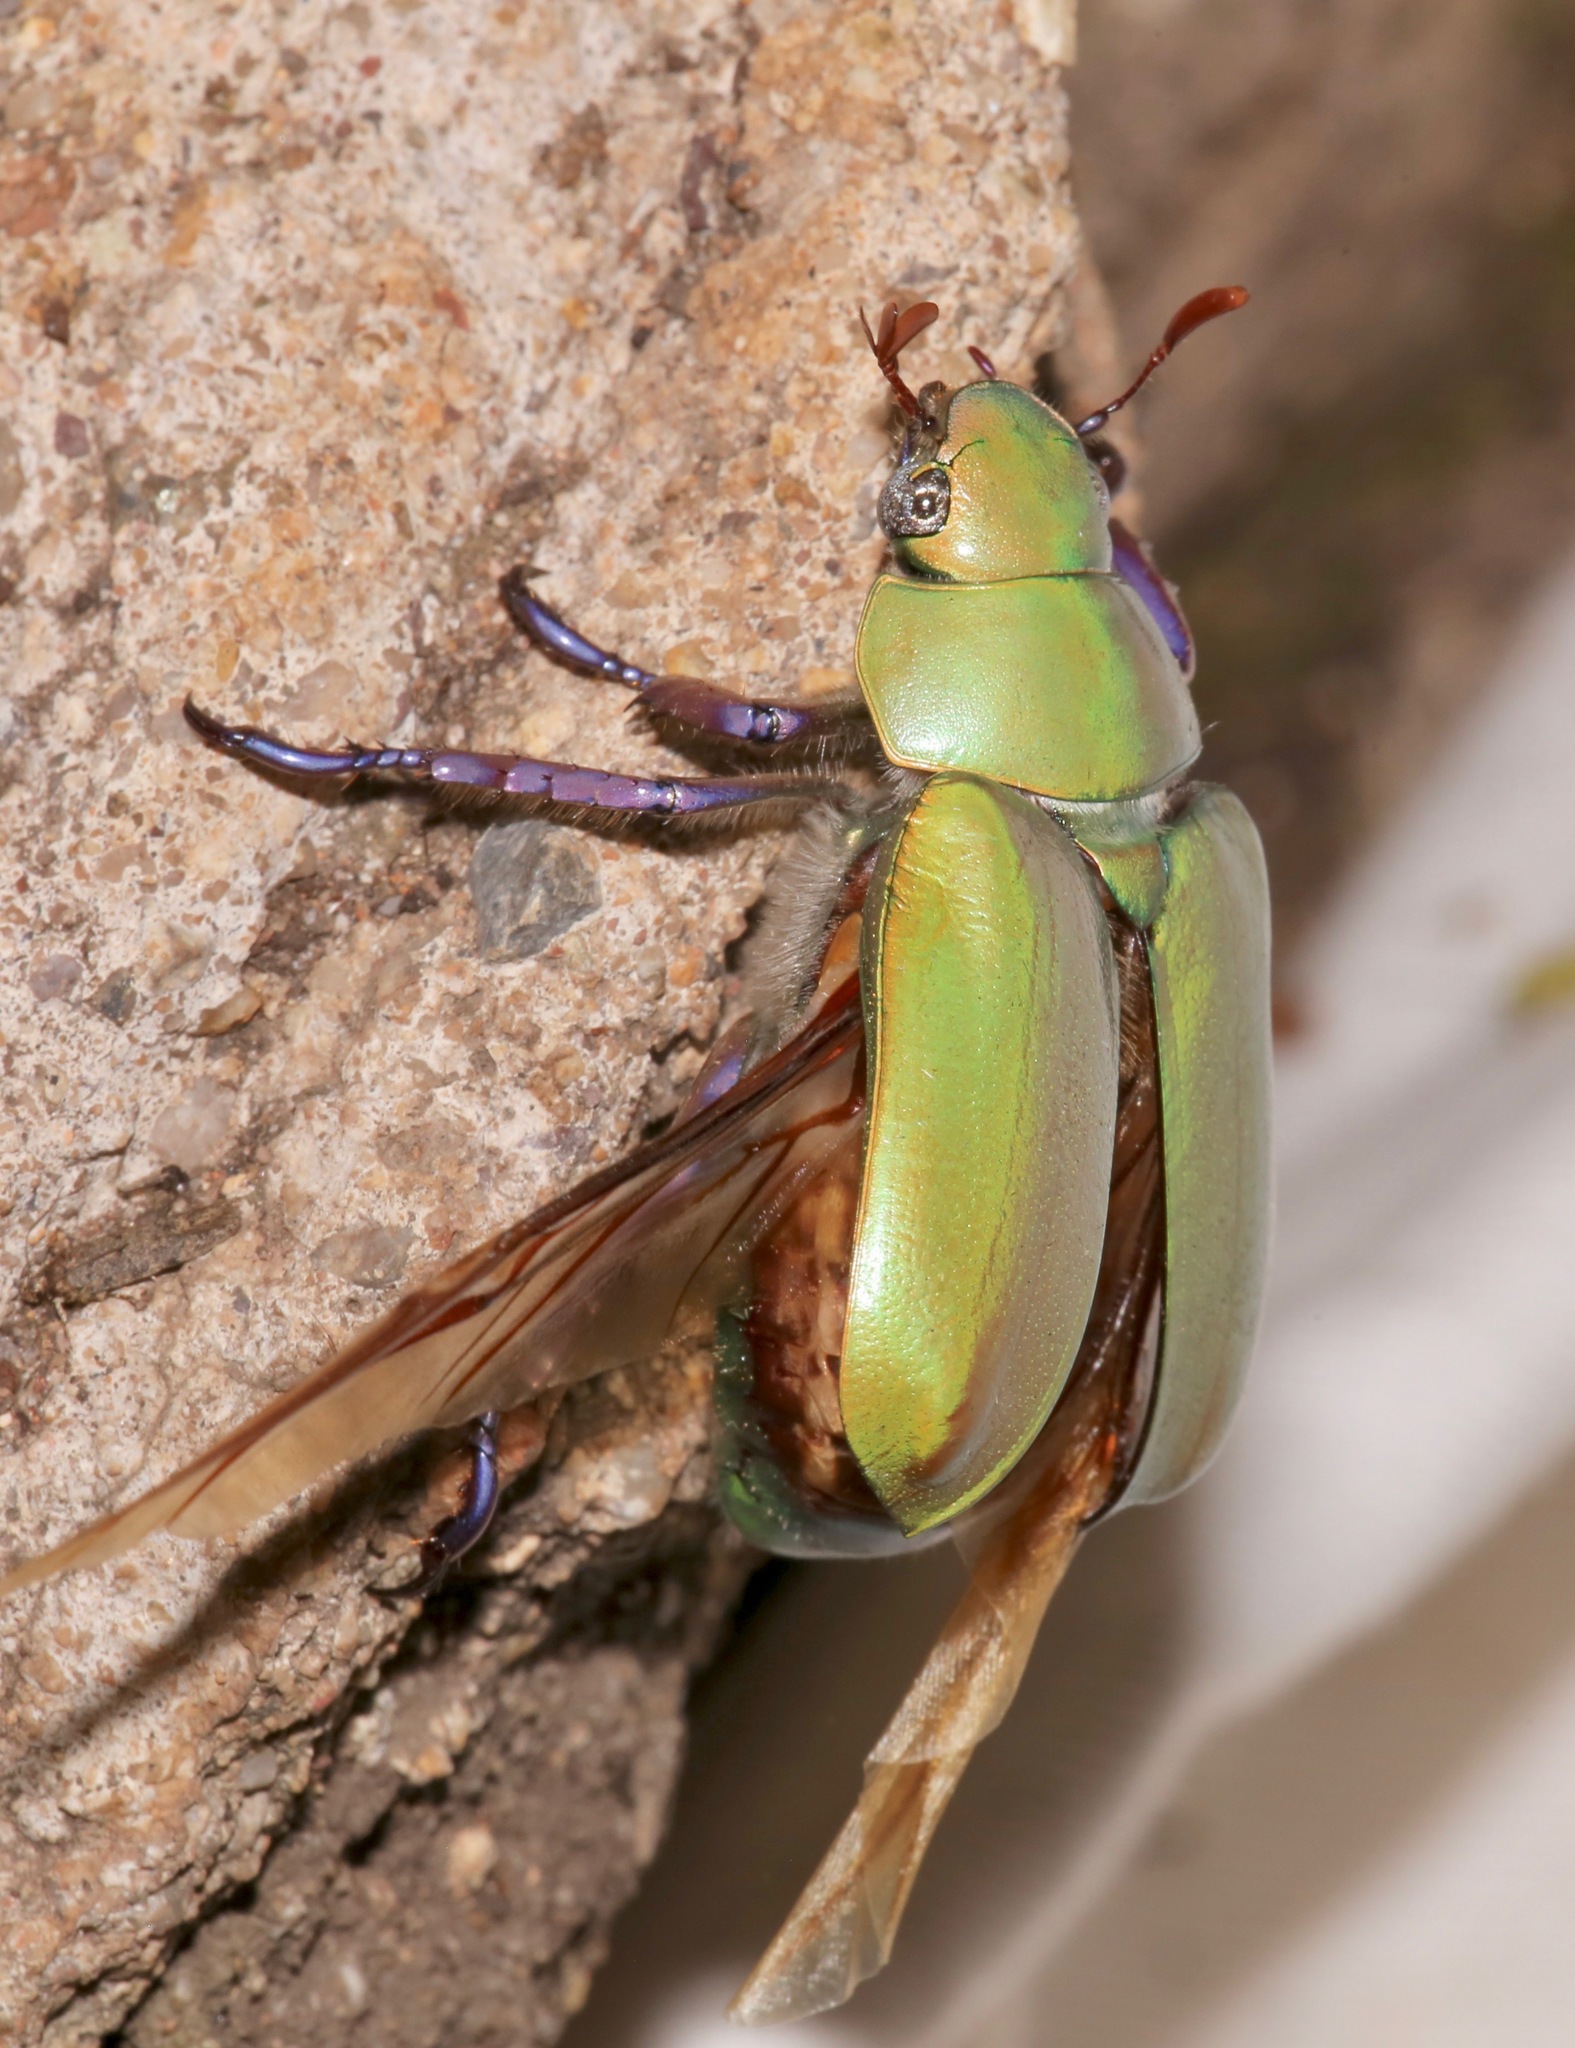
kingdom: Animalia
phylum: Arthropoda
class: Insecta
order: Coleoptera
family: Scarabaeidae
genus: Chrysina
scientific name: Chrysina beyeri
